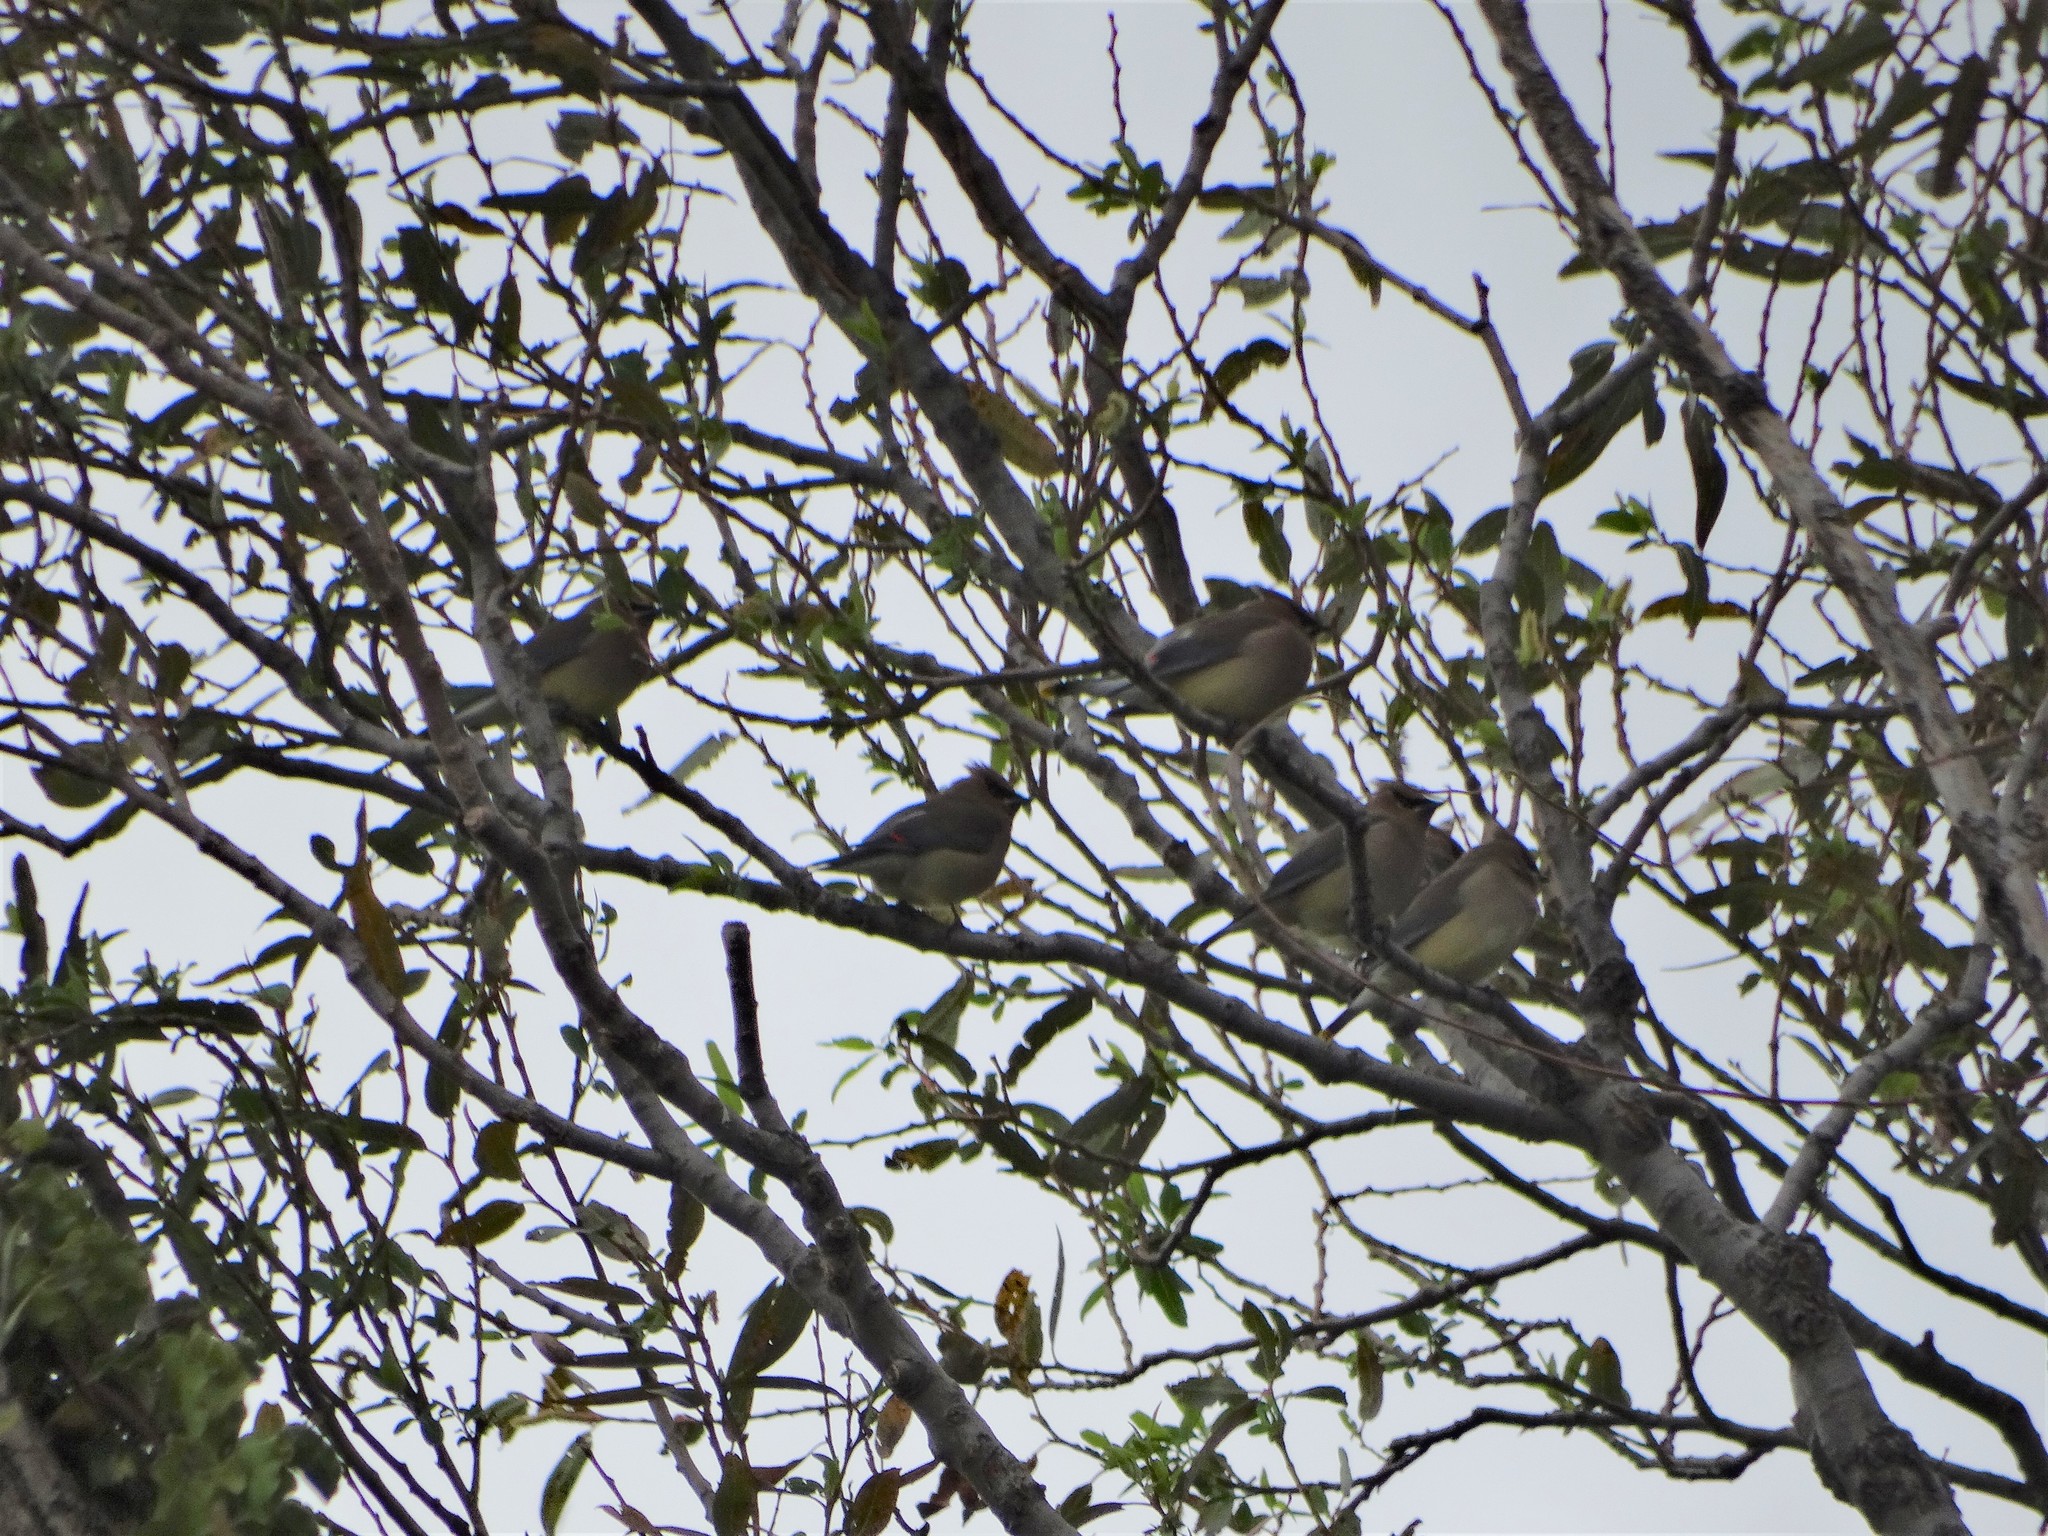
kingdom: Animalia
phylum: Chordata
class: Aves
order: Passeriformes
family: Bombycillidae
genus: Bombycilla
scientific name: Bombycilla cedrorum
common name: Cedar waxwing
